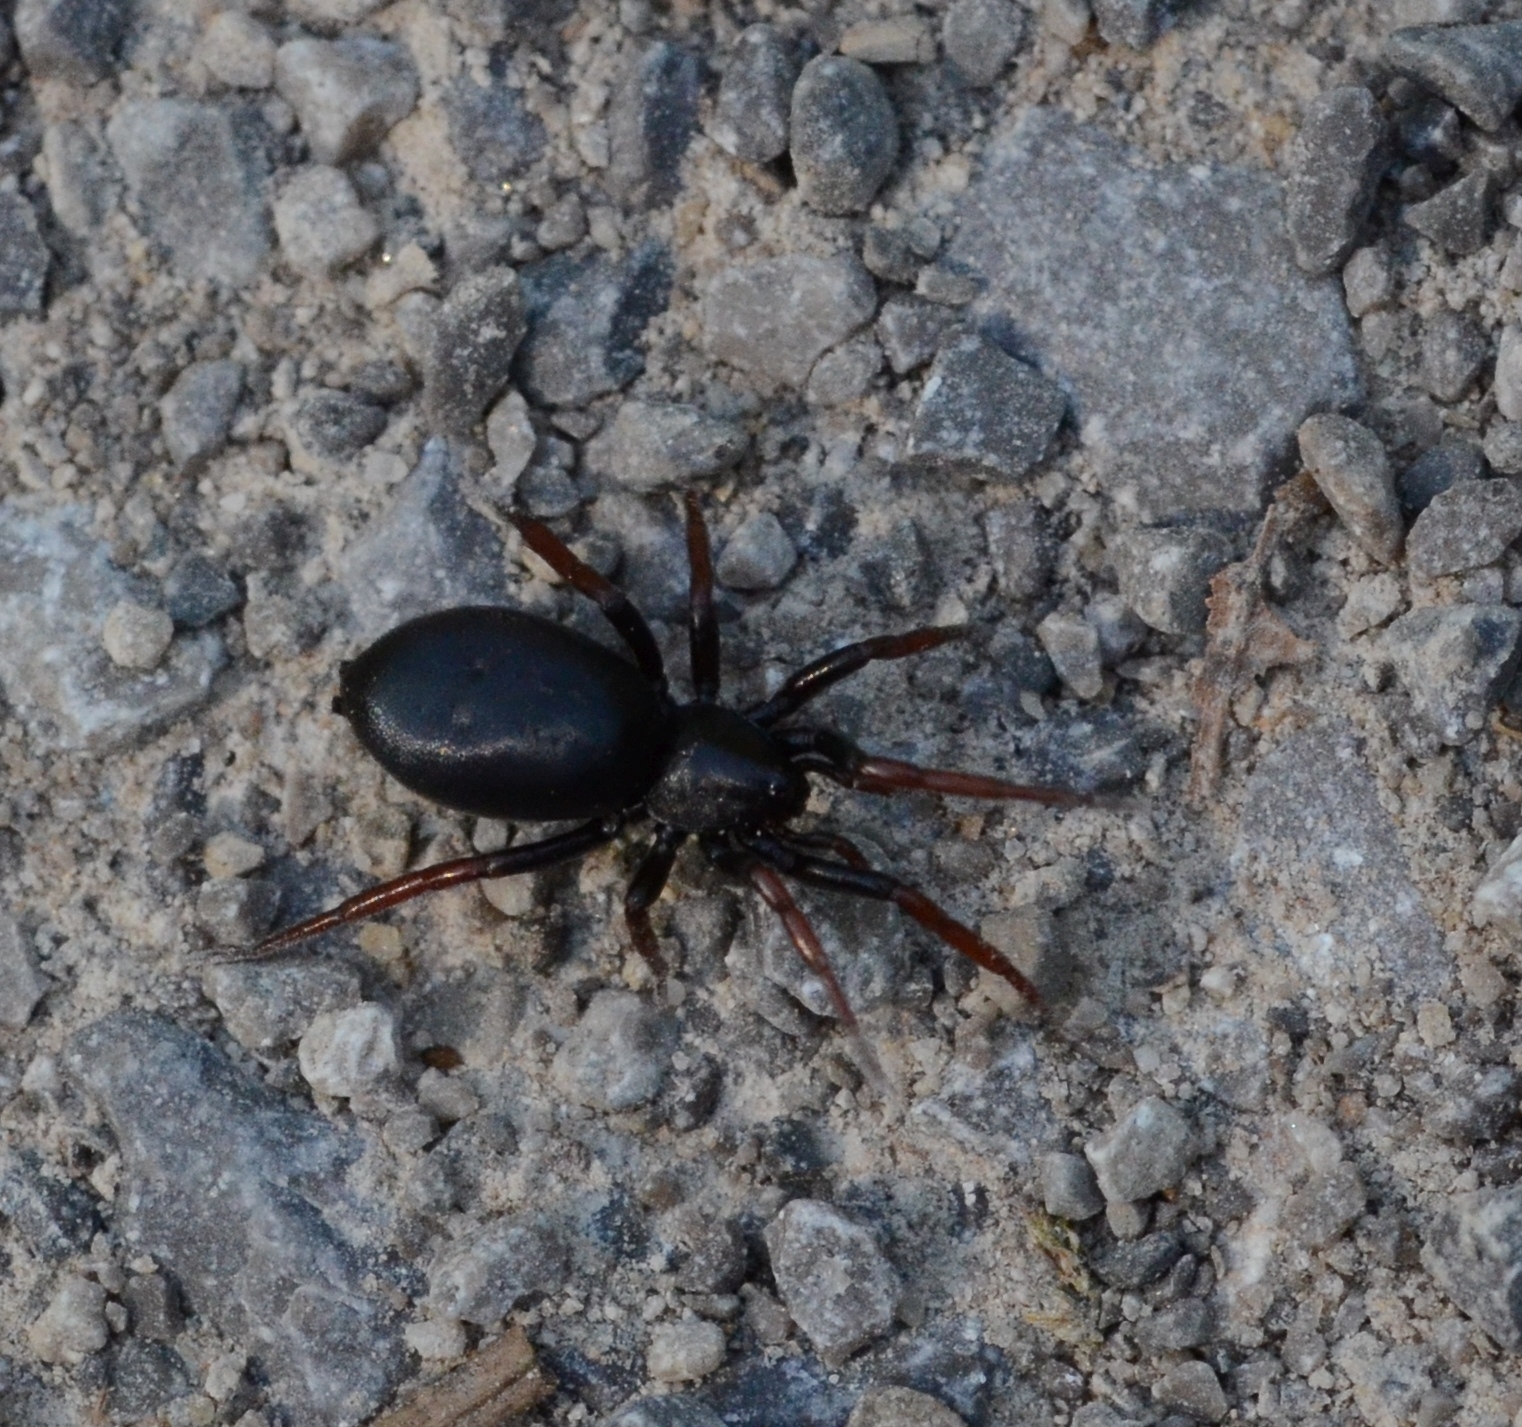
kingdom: Animalia
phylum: Arthropoda
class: Arachnida
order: Araneae
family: Gnaphosidae
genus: Trachyzelotes
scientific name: Trachyzelotes pedestris
